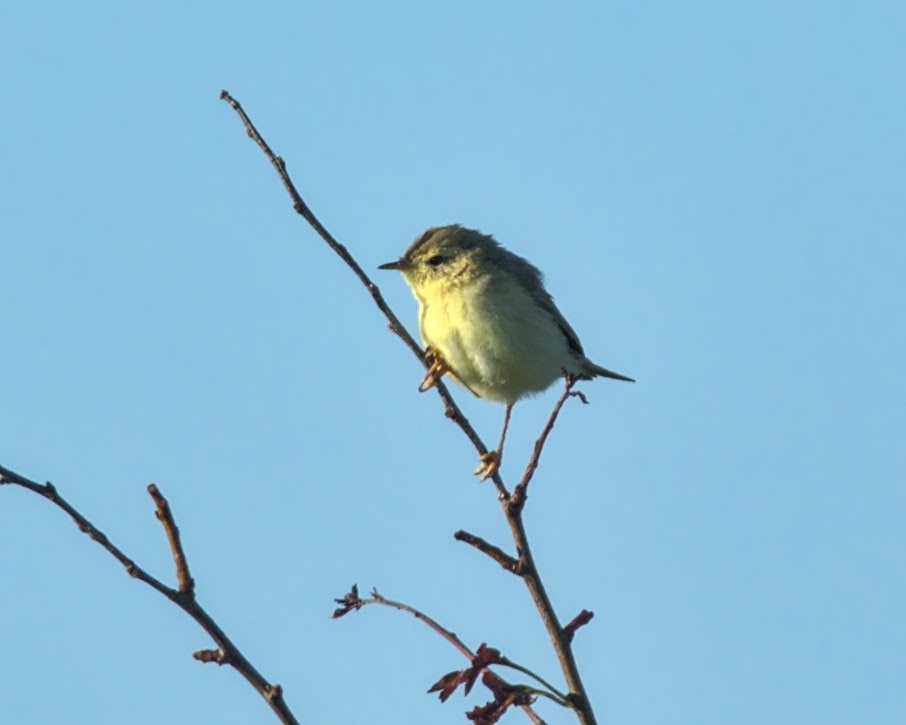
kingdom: Animalia
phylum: Chordata
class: Aves
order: Passeriformes
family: Phylloscopidae
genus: Phylloscopus
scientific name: Phylloscopus trochilus
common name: Willow warbler
